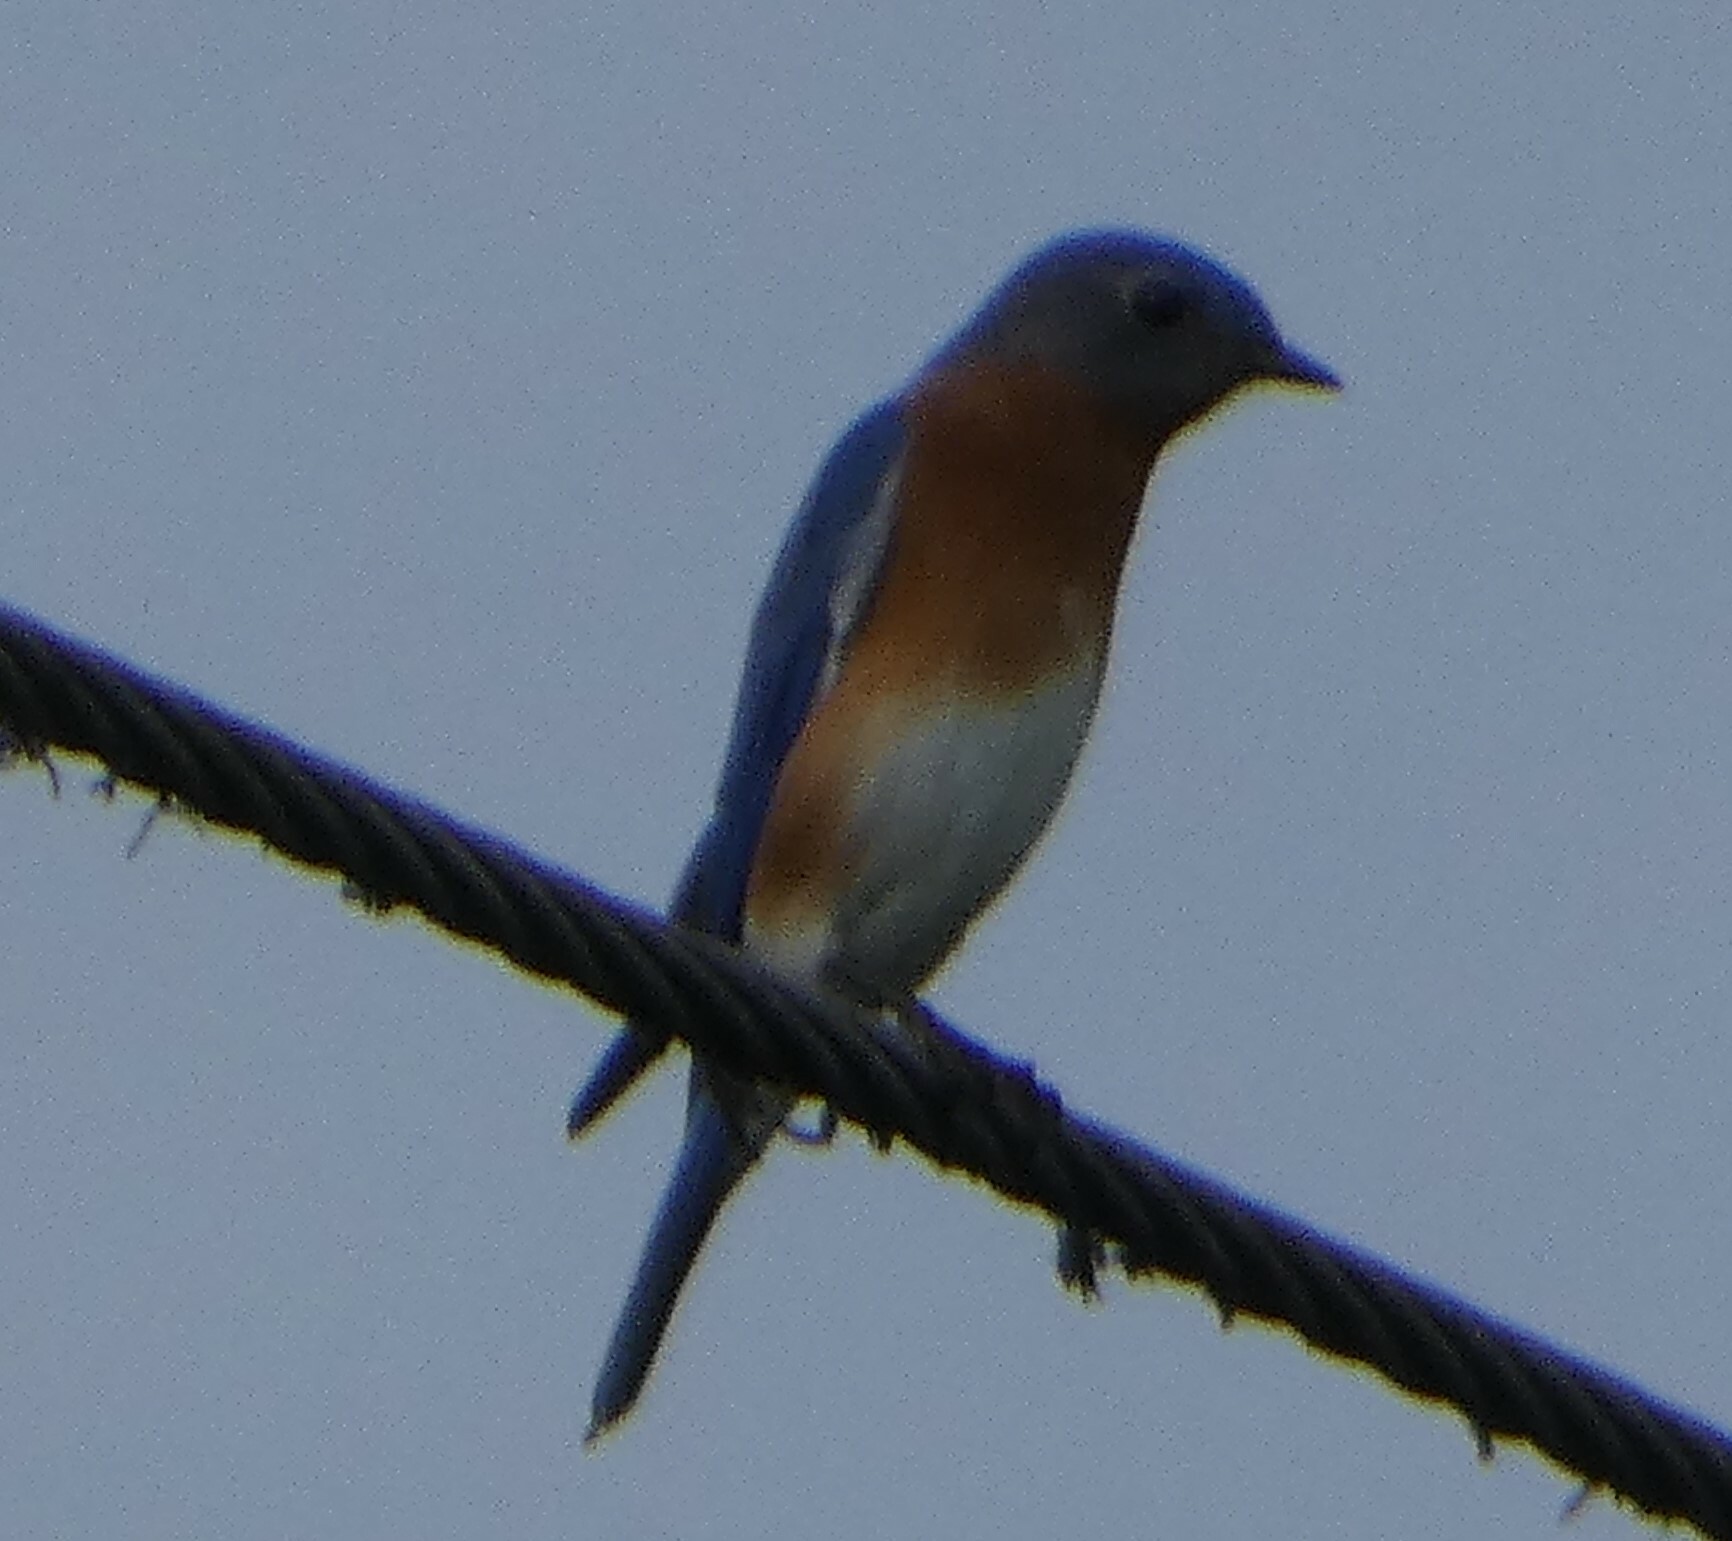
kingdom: Animalia
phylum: Chordata
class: Aves
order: Passeriformes
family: Turdidae
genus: Sialia
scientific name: Sialia sialis
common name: Eastern bluebird
